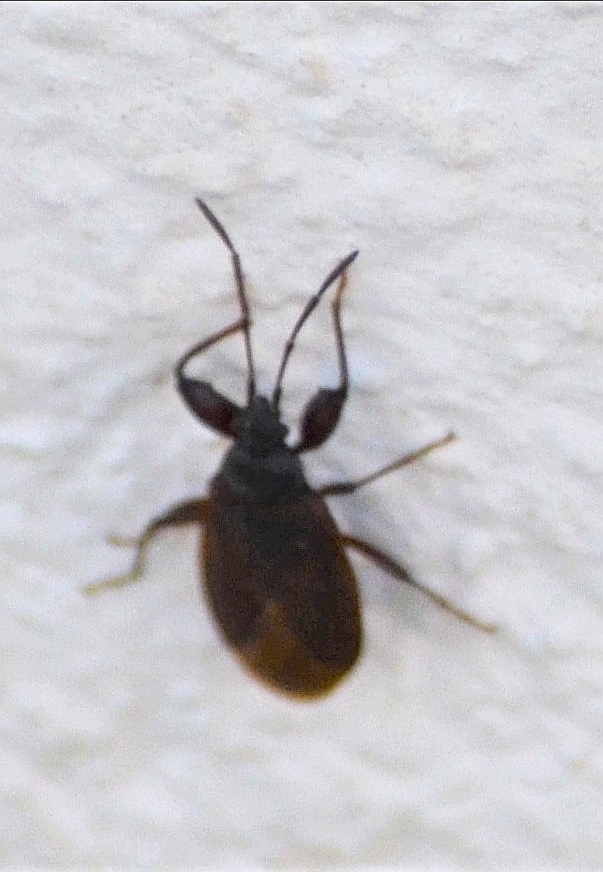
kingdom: Animalia
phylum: Arthropoda
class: Insecta
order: Hemiptera
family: Rhyparochromidae
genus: Gastrodes
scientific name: Gastrodes grossipes
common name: Pine cone bug
